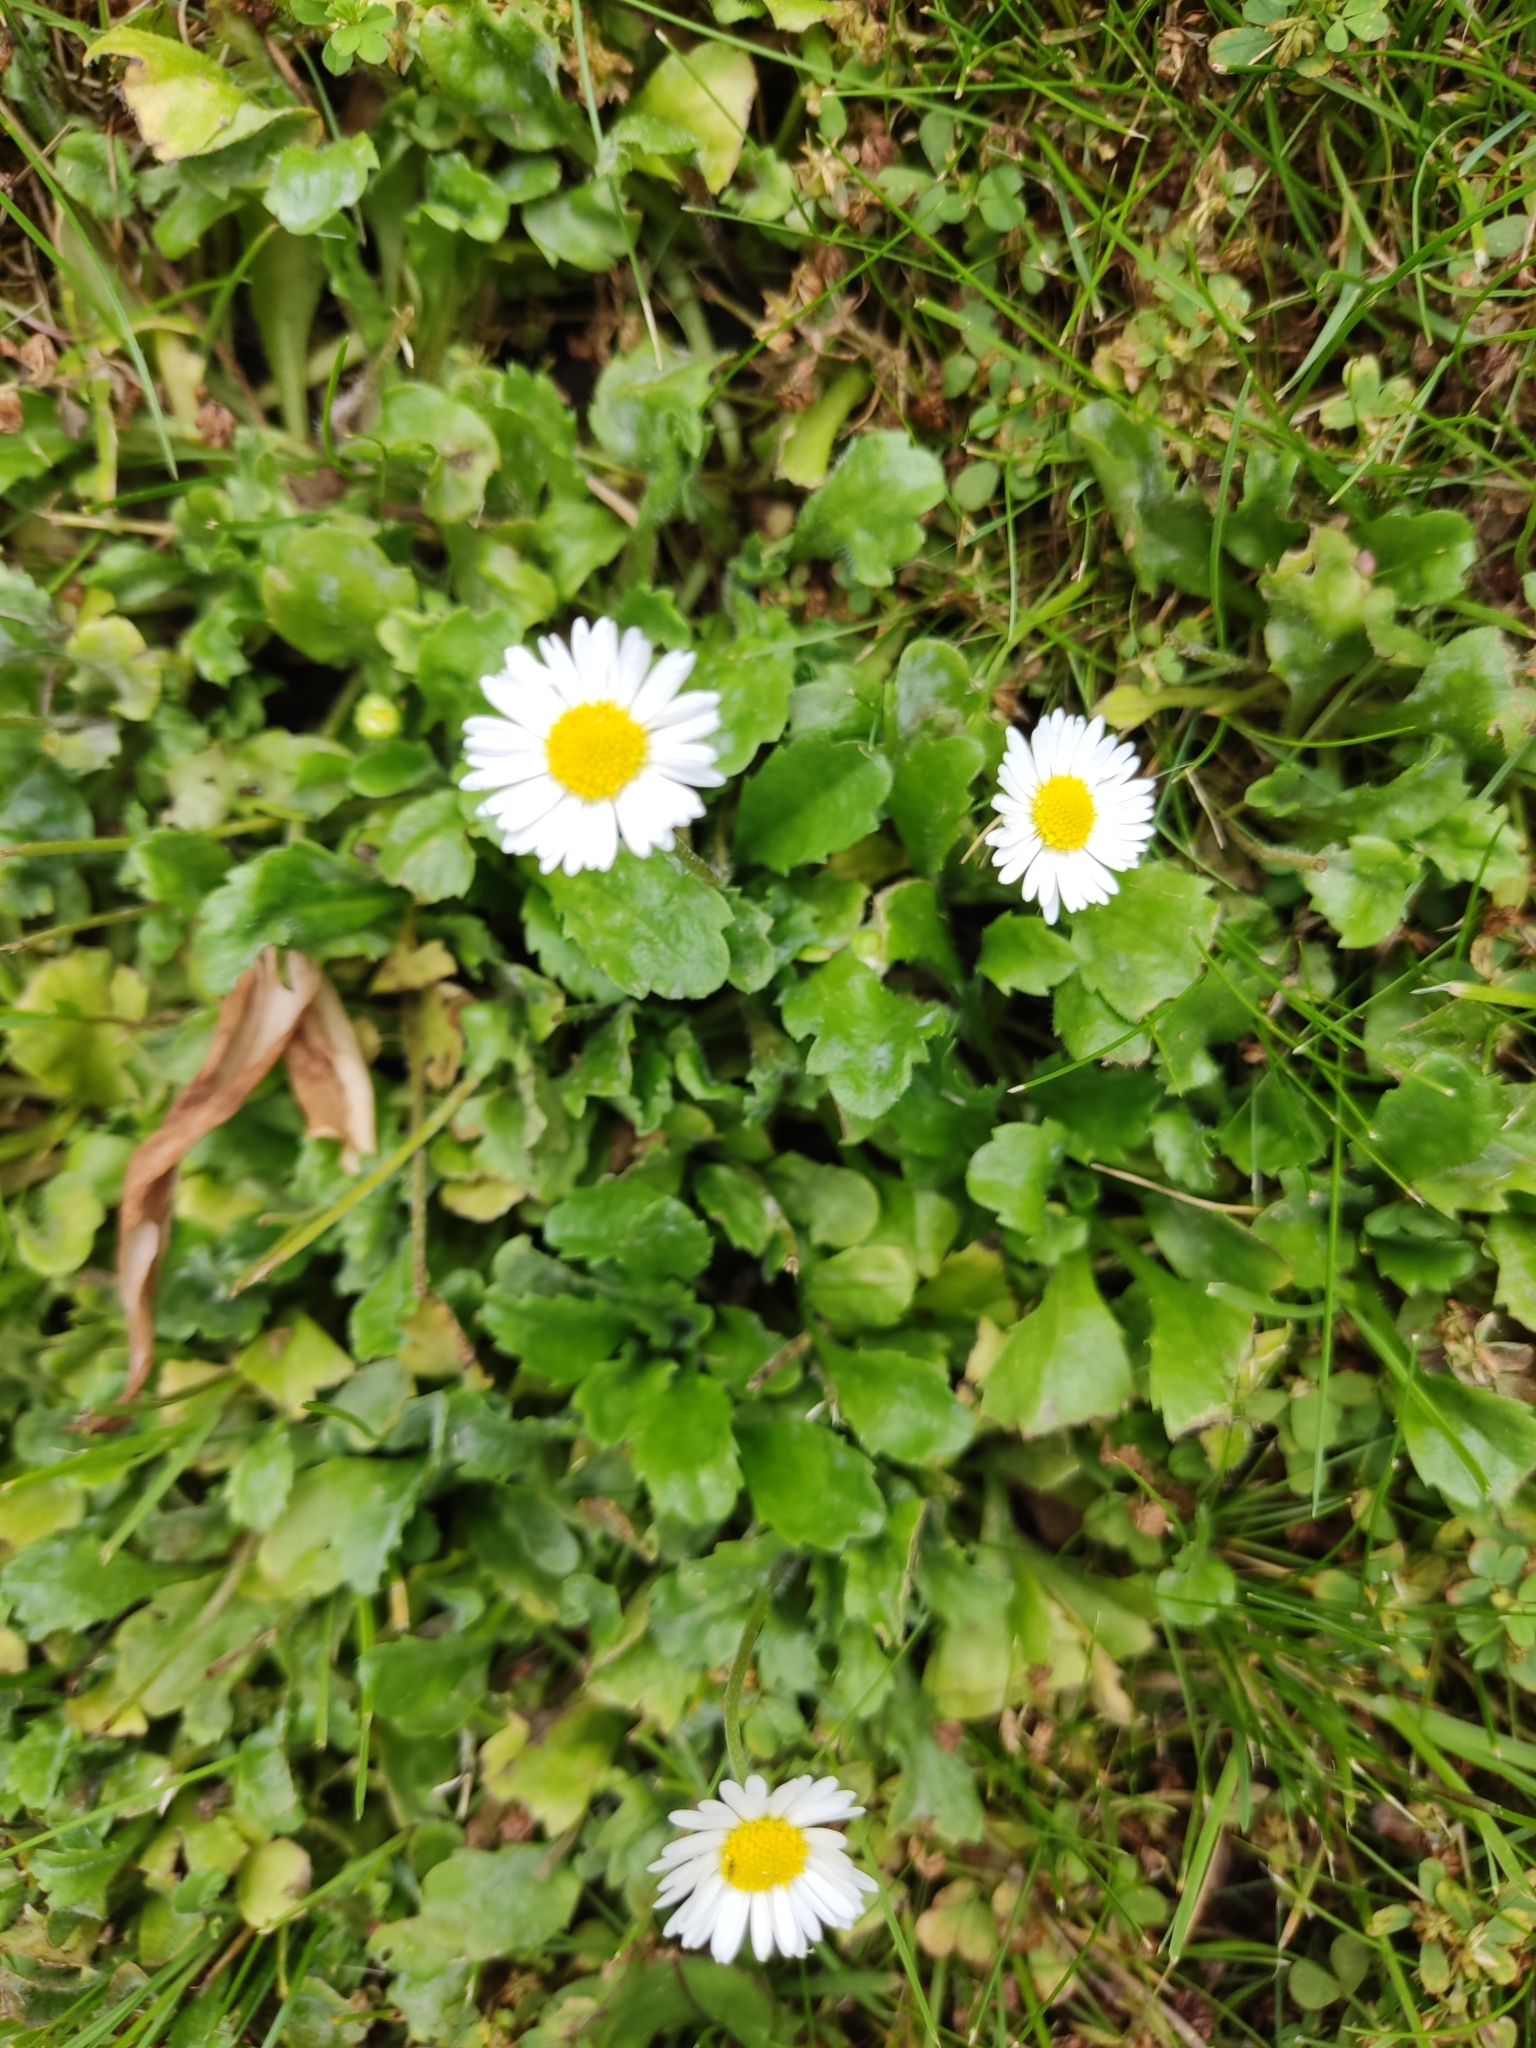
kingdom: Plantae
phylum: Tracheophyta
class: Magnoliopsida
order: Asterales
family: Asteraceae
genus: Bellis
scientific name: Bellis perennis
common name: Lawndaisy
